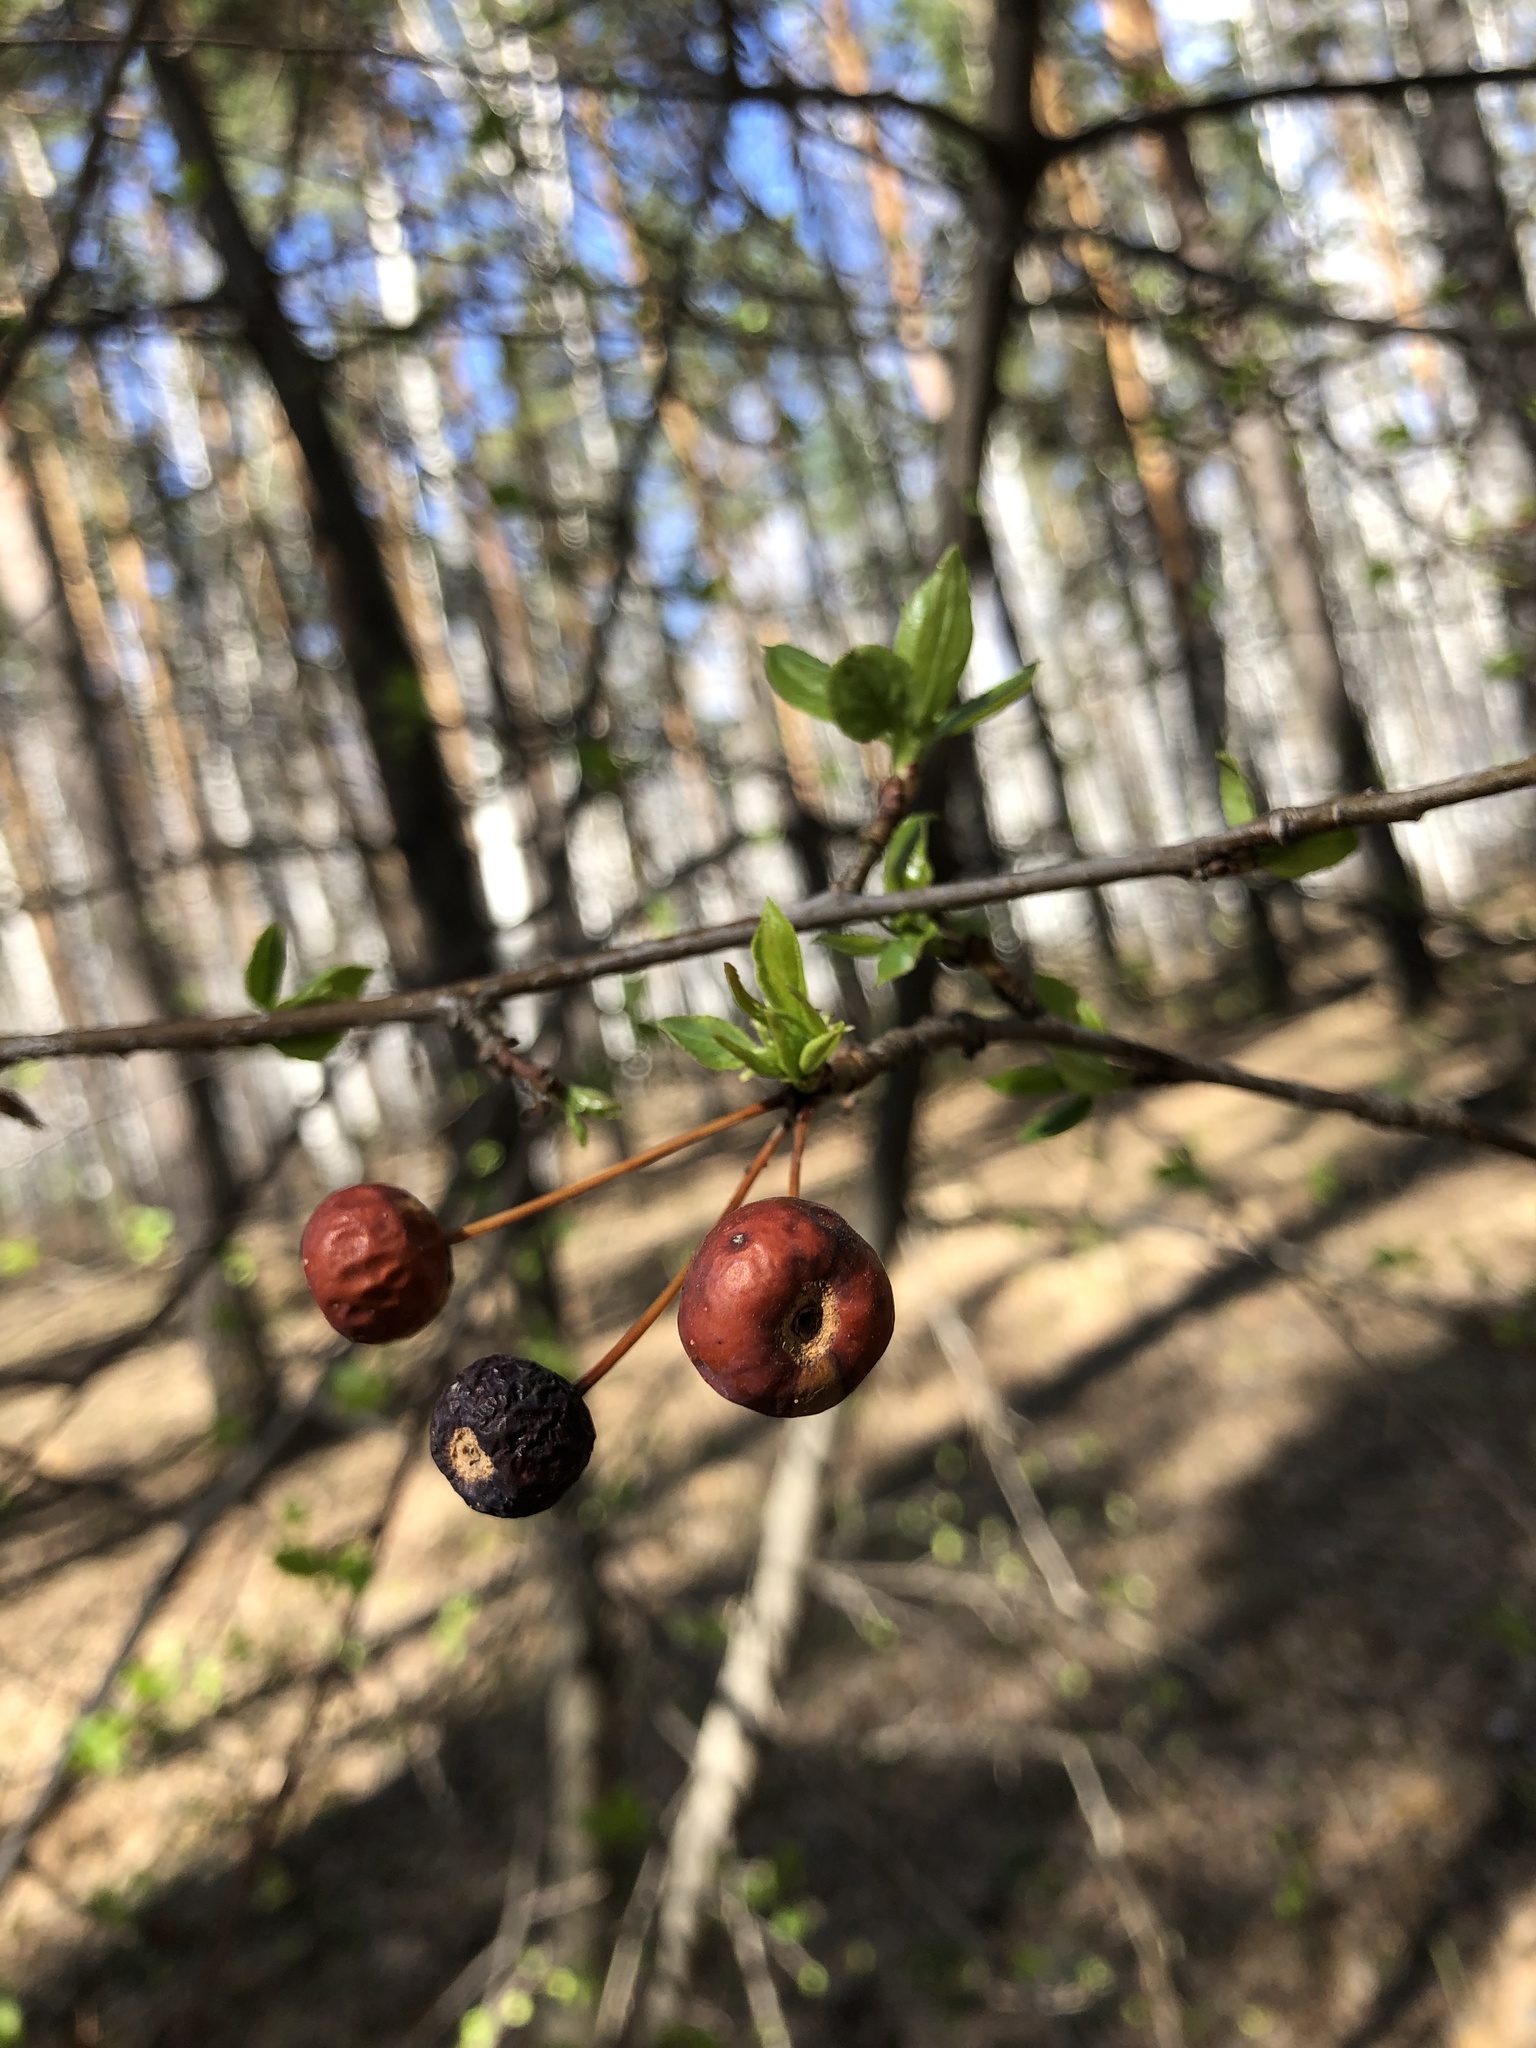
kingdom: Plantae
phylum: Tracheophyta
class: Magnoliopsida
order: Rosales
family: Rosaceae
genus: Malus
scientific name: Malus baccata
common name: Siberian crab
